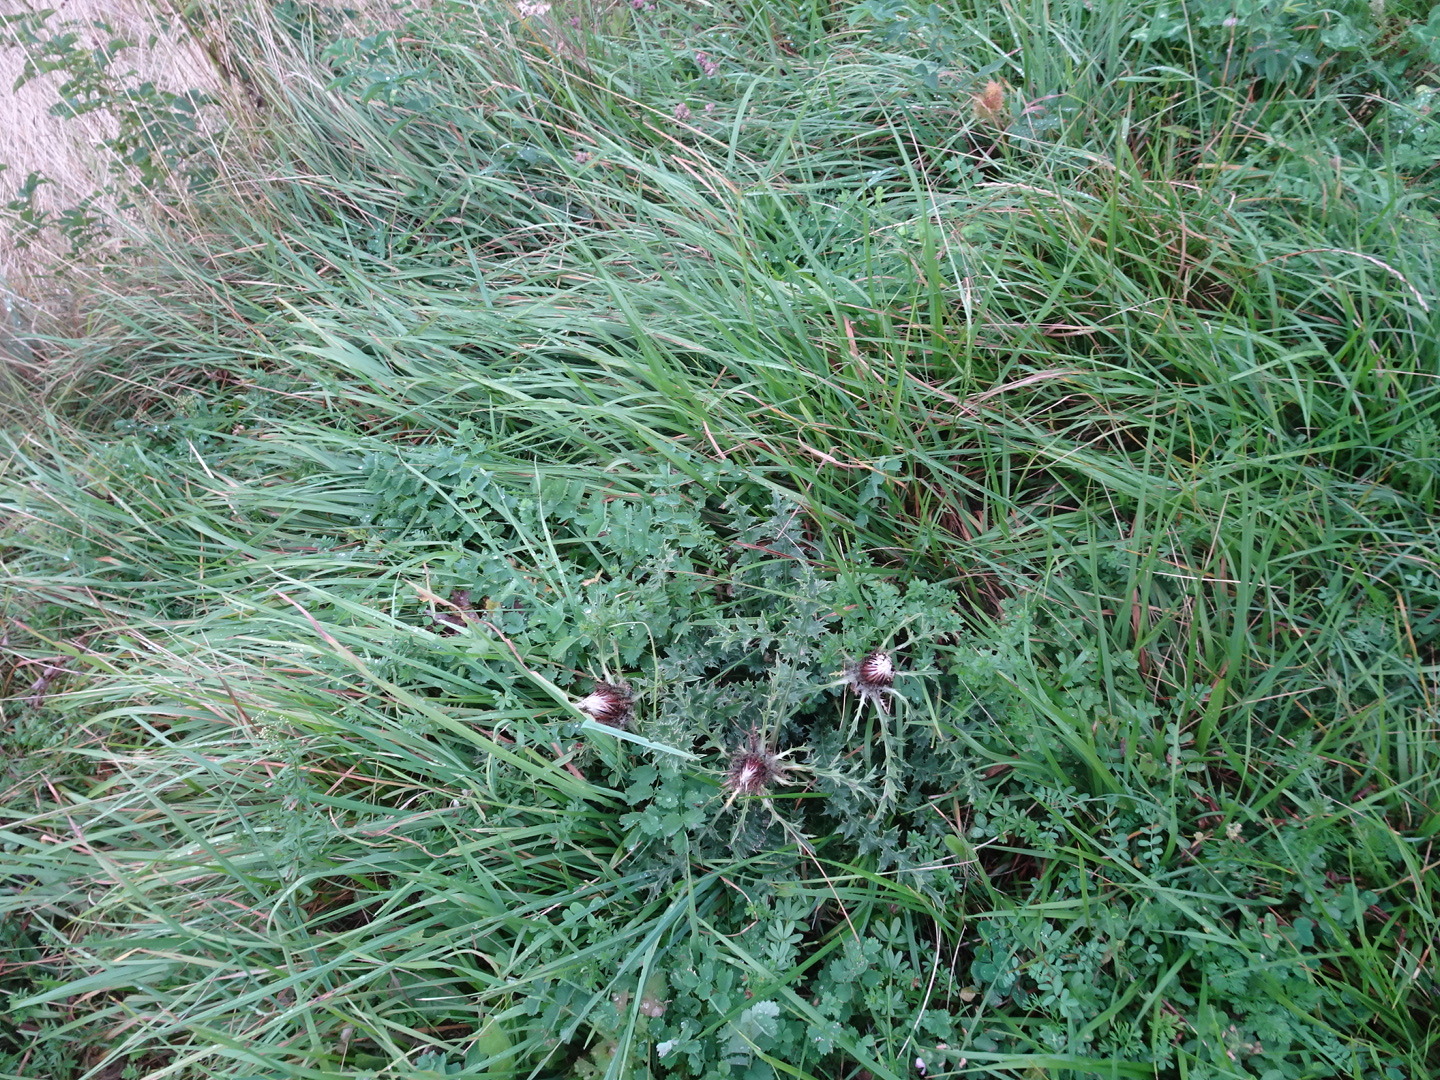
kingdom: Plantae
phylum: Tracheophyta
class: Magnoliopsida
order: Asterales
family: Asteraceae
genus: Carlina
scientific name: Carlina acaulis
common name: Stemless carline thistle
